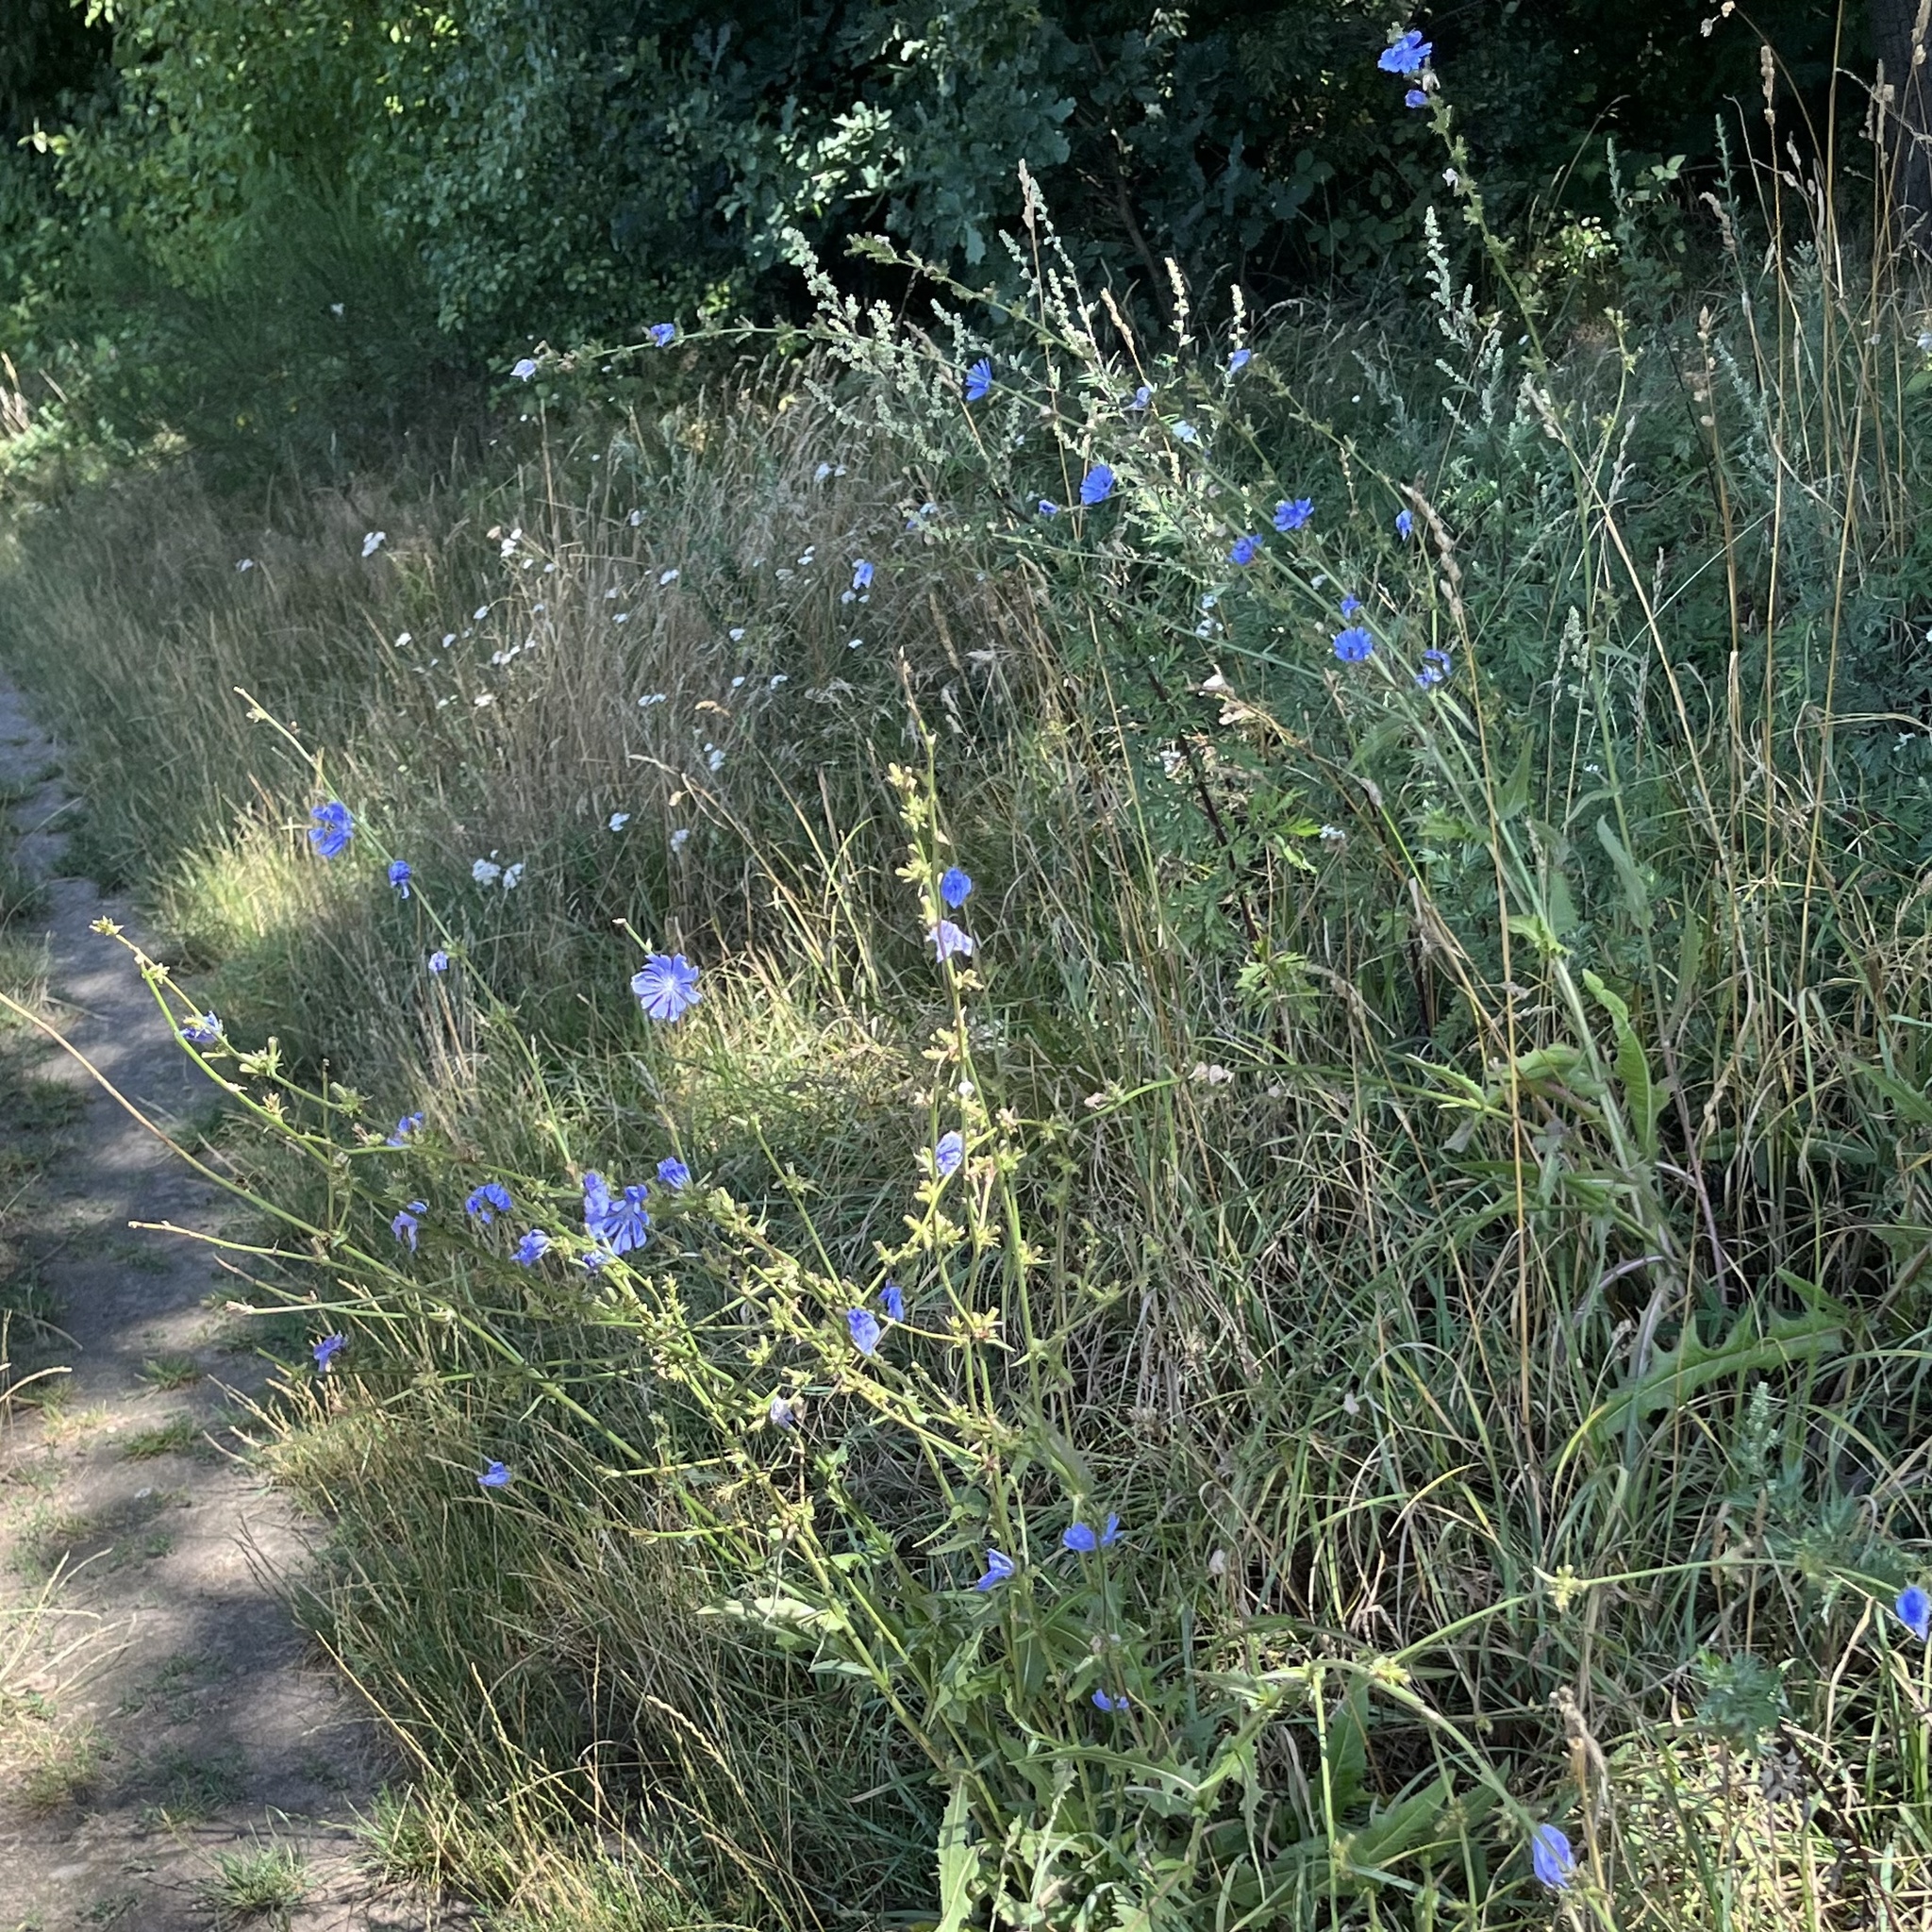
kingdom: Plantae
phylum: Tracheophyta
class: Magnoliopsida
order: Asterales
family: Asteraceae
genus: Cichorium
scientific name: Cichorium intybus
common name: Chicory
